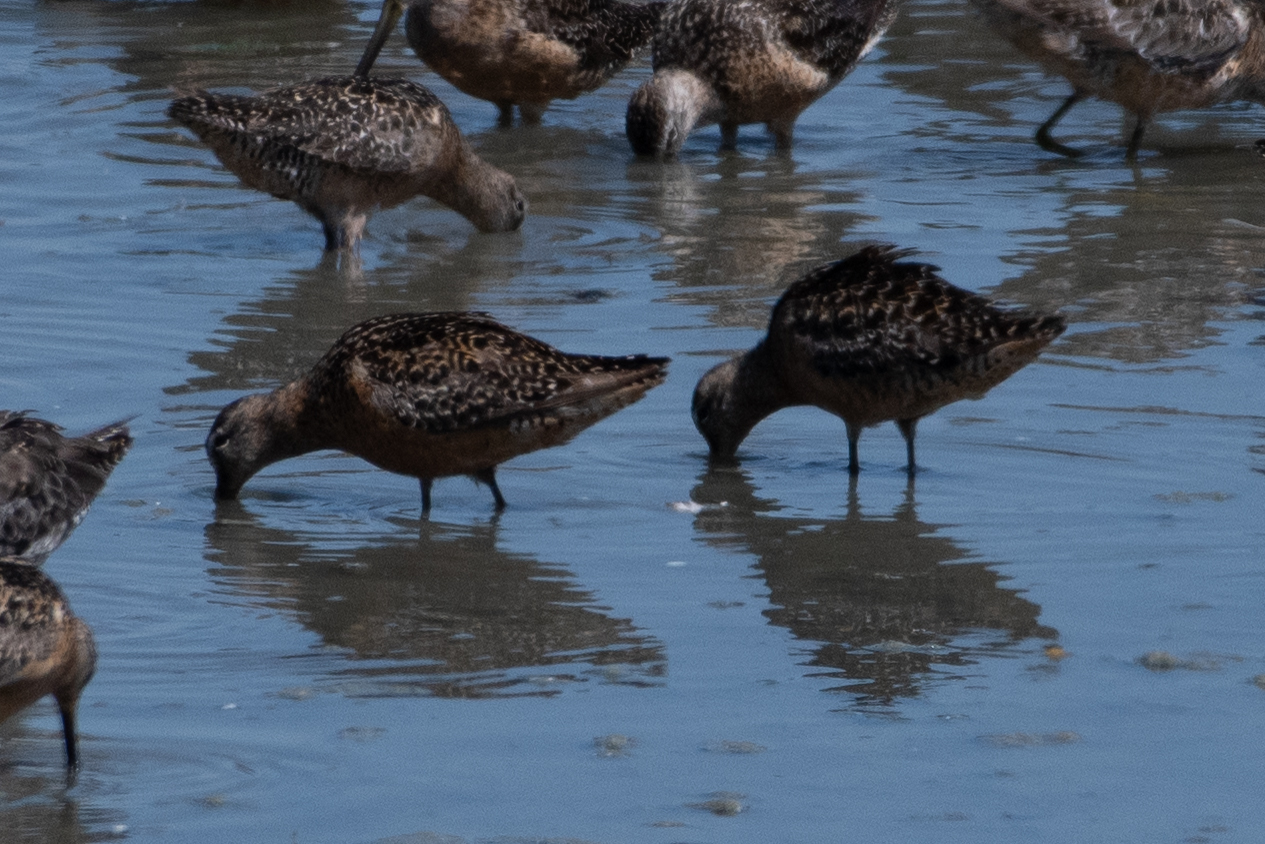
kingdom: Animalia
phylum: Chordata
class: Aves
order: Charadriiformes
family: Scolopacidae
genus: Limnodromus
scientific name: Limnodromus scolopaceus
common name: Long-billed dowitcher
